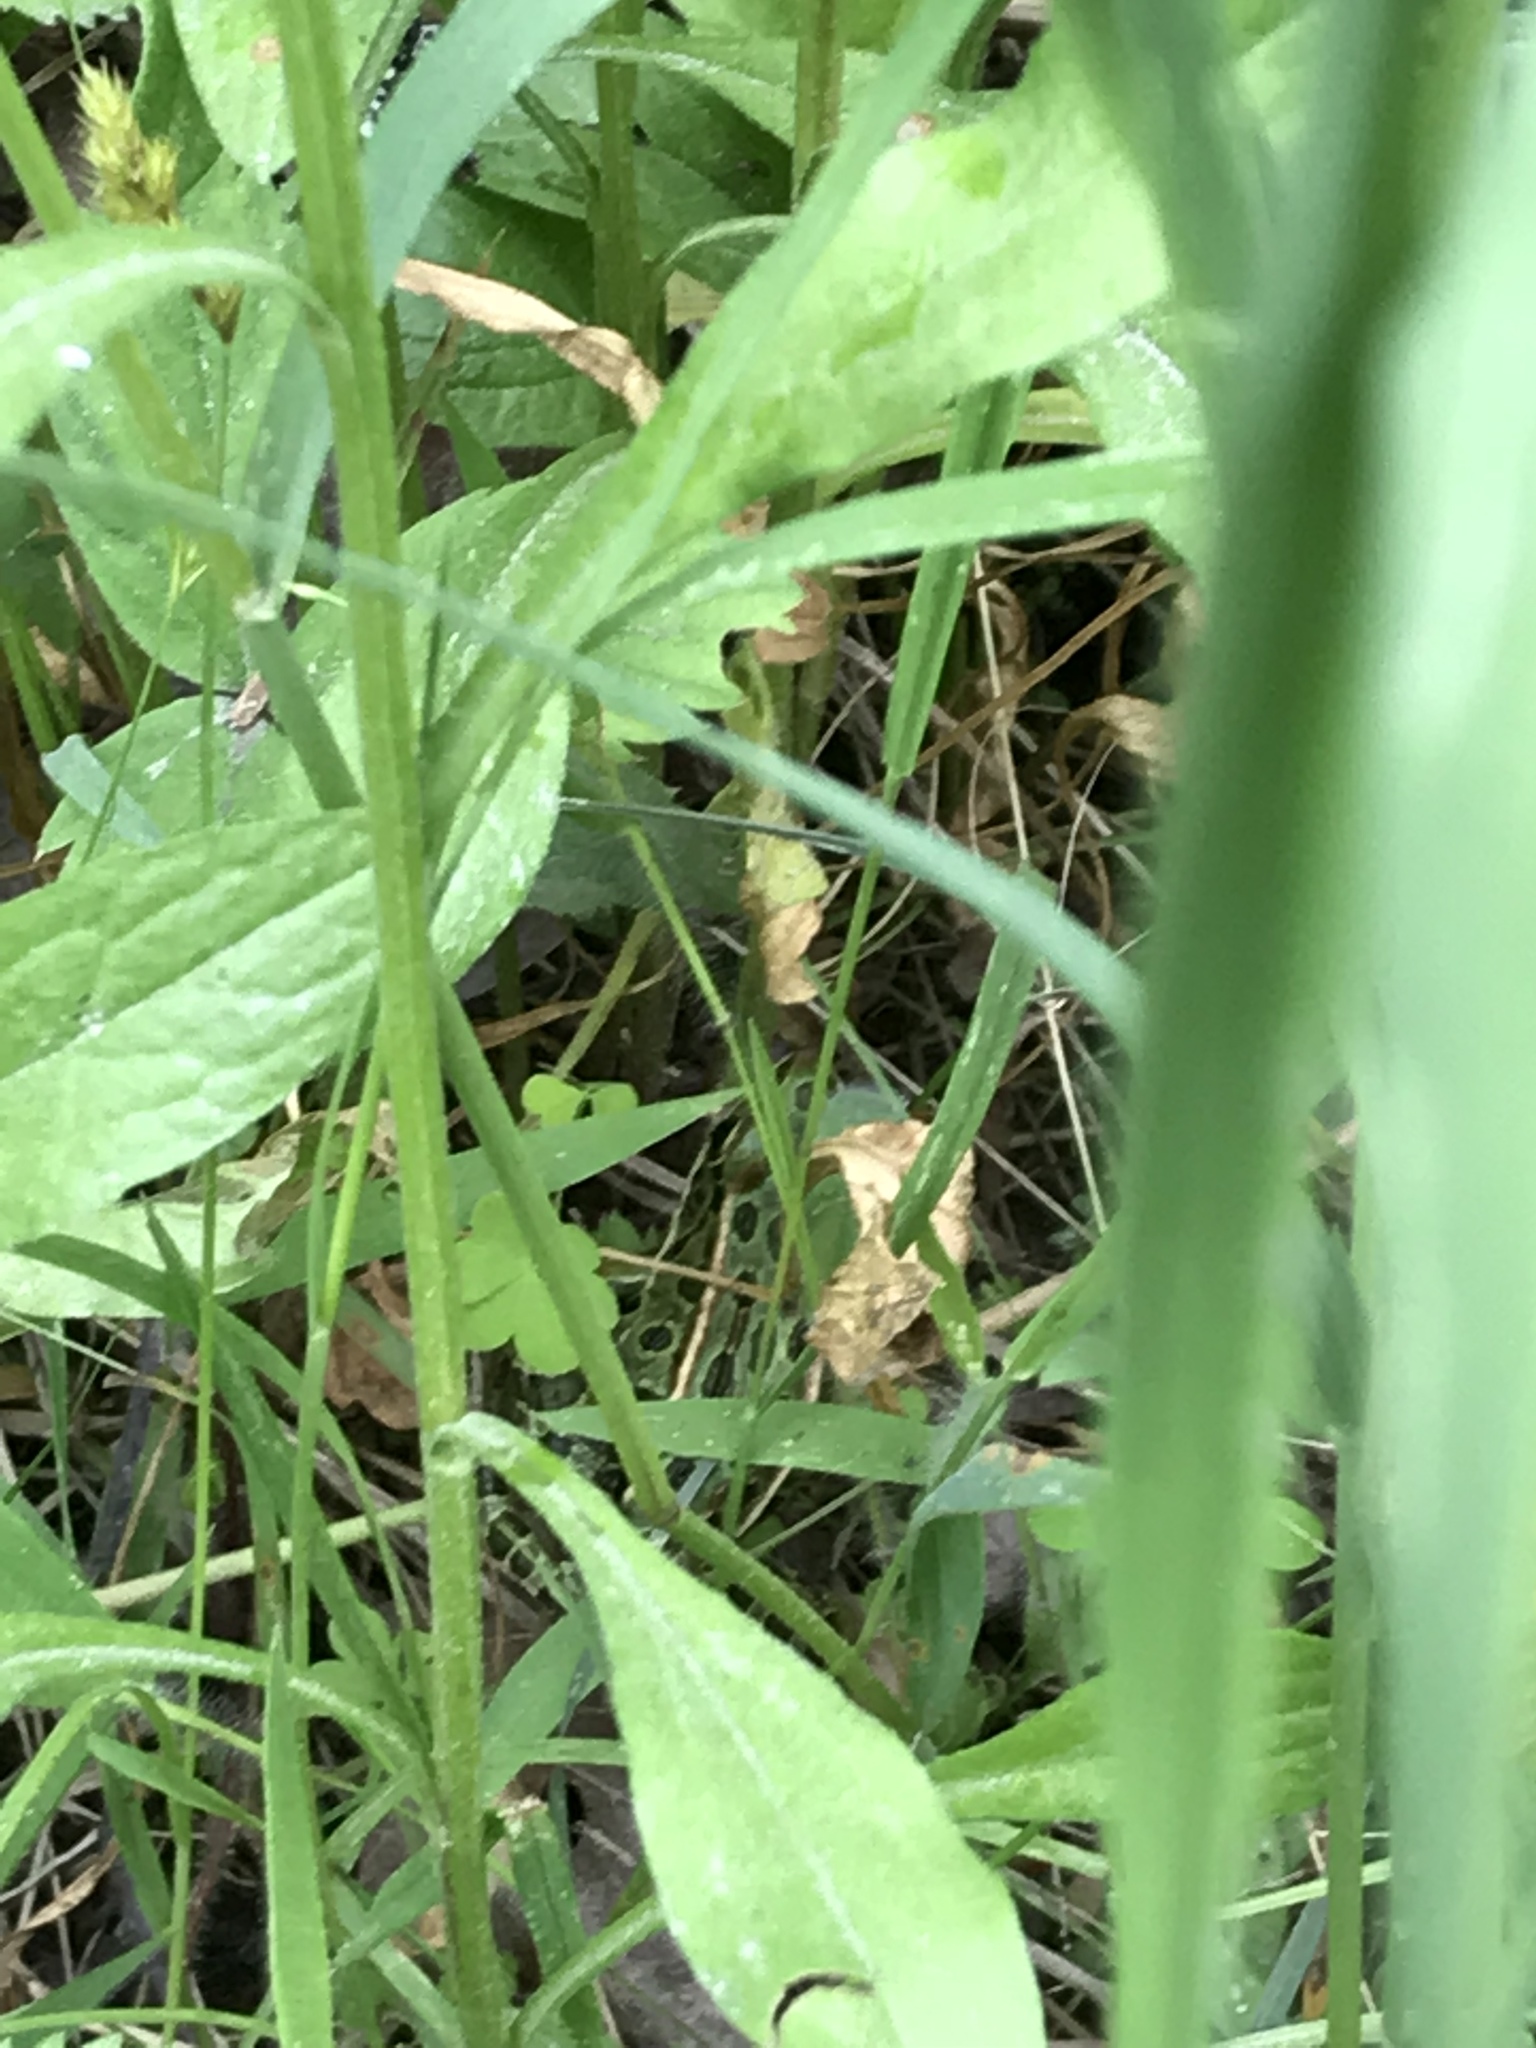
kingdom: Animalia
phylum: Chordata
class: Amphibia
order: Anura
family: Ranidae
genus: Lithobates
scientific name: Lithobates pipiens
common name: Northern leopard frog
